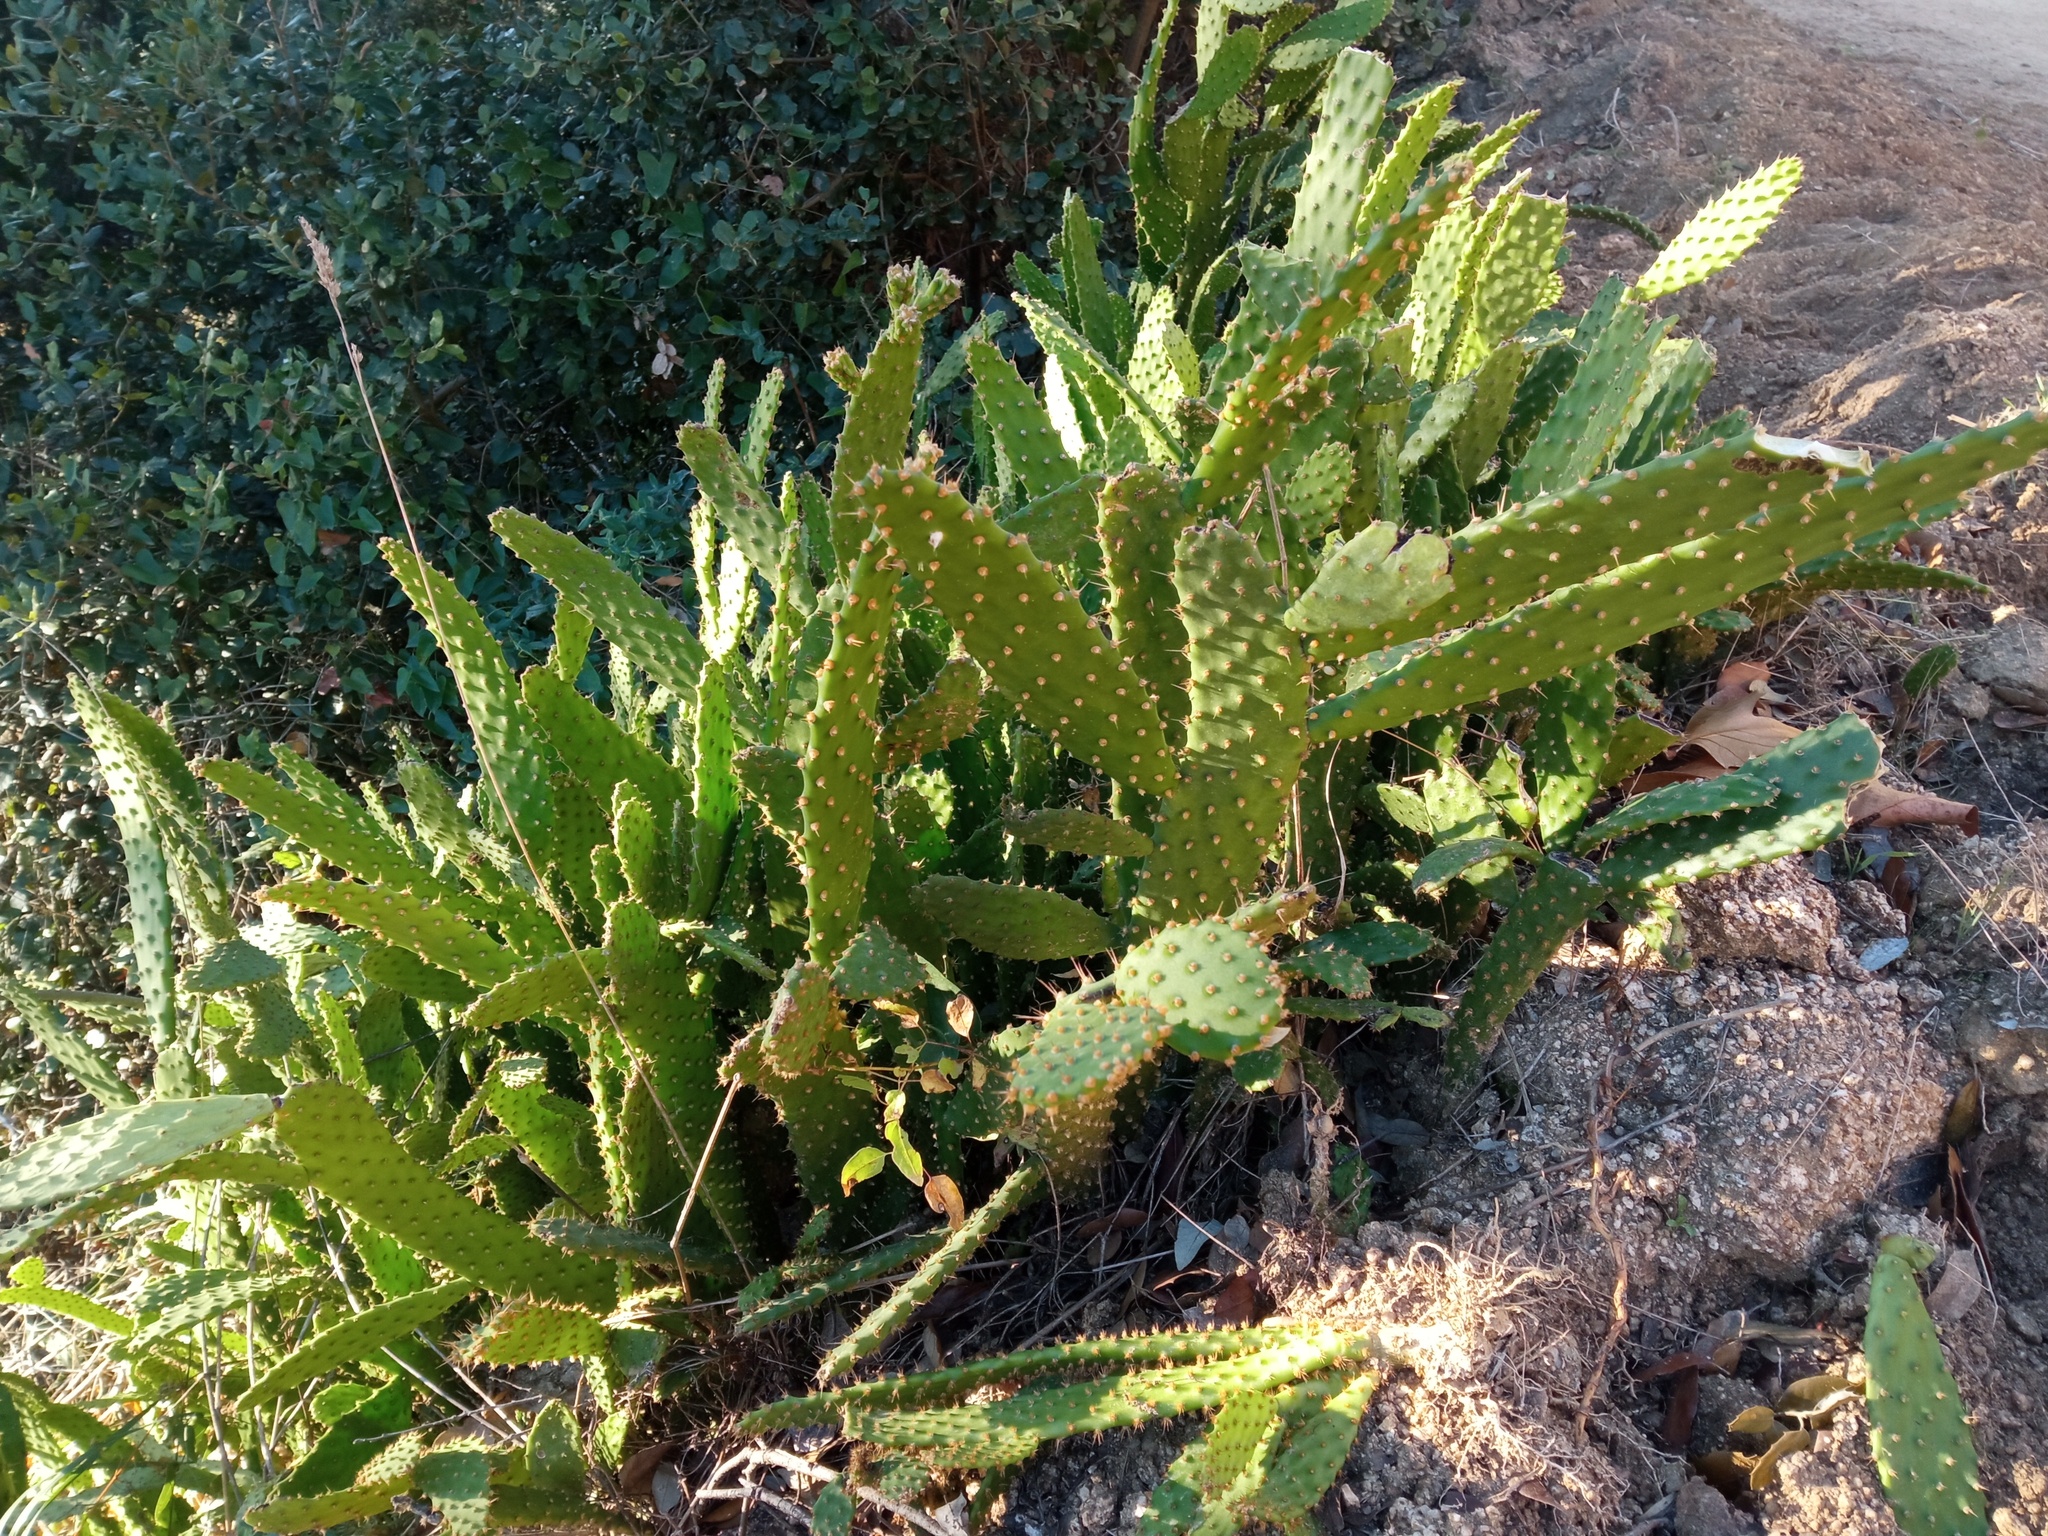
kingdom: Plantae
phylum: Tracheophyta
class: Magnoliopsida
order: Caryophyllales
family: Cactaceae
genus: Opuntia
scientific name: Opuntia leoglossa
